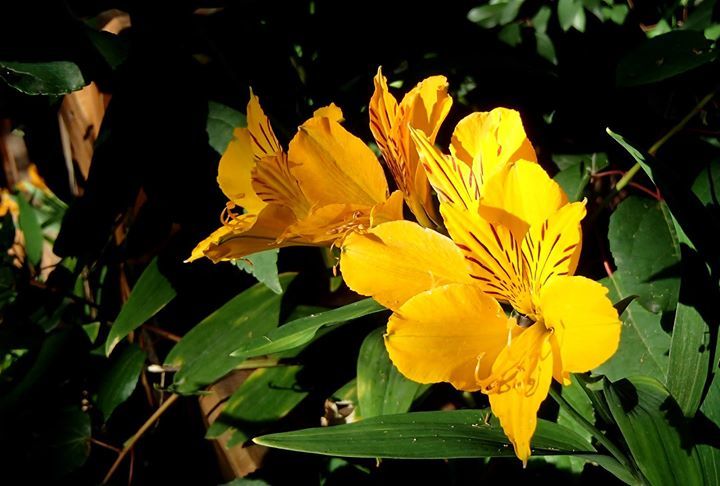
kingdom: Plantae
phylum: Tracheophyta
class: Liliopsida
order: Liliales
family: Alstroemeriaceae
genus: Alstroemeria
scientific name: Alstroemeria aurea
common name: Peruvian lily
